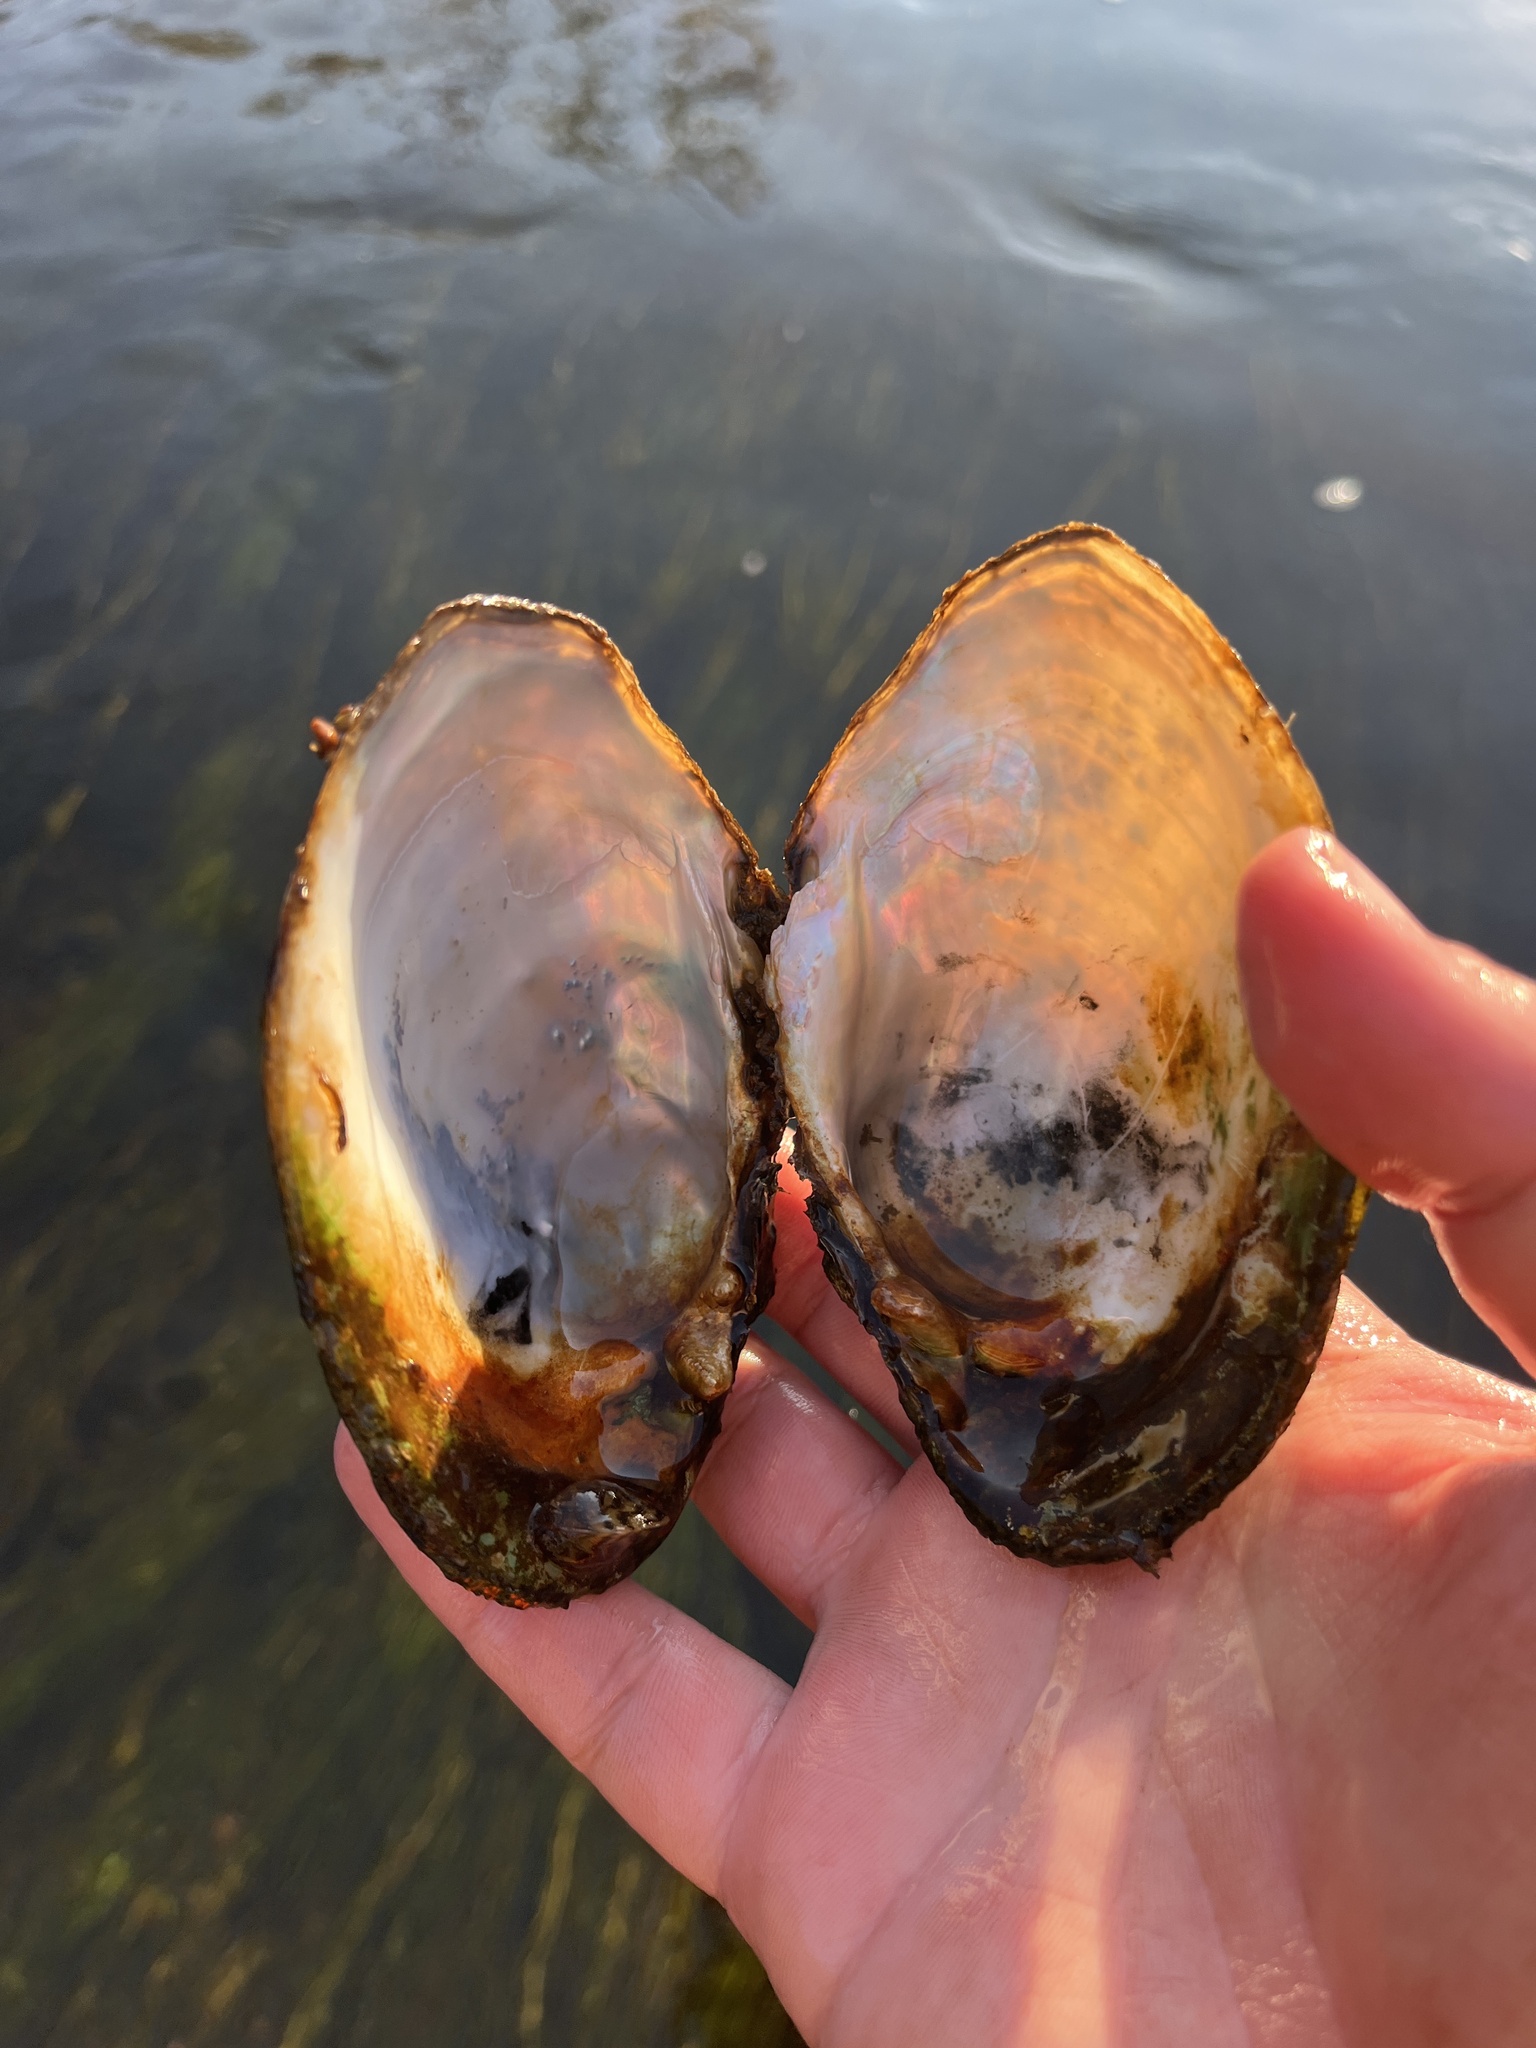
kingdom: Animalia
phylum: Mollusca
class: Bivalvia
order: Unionida
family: Unionidae
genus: Lampsilis
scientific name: Lampsilis cardium
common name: Plain pocketbook
